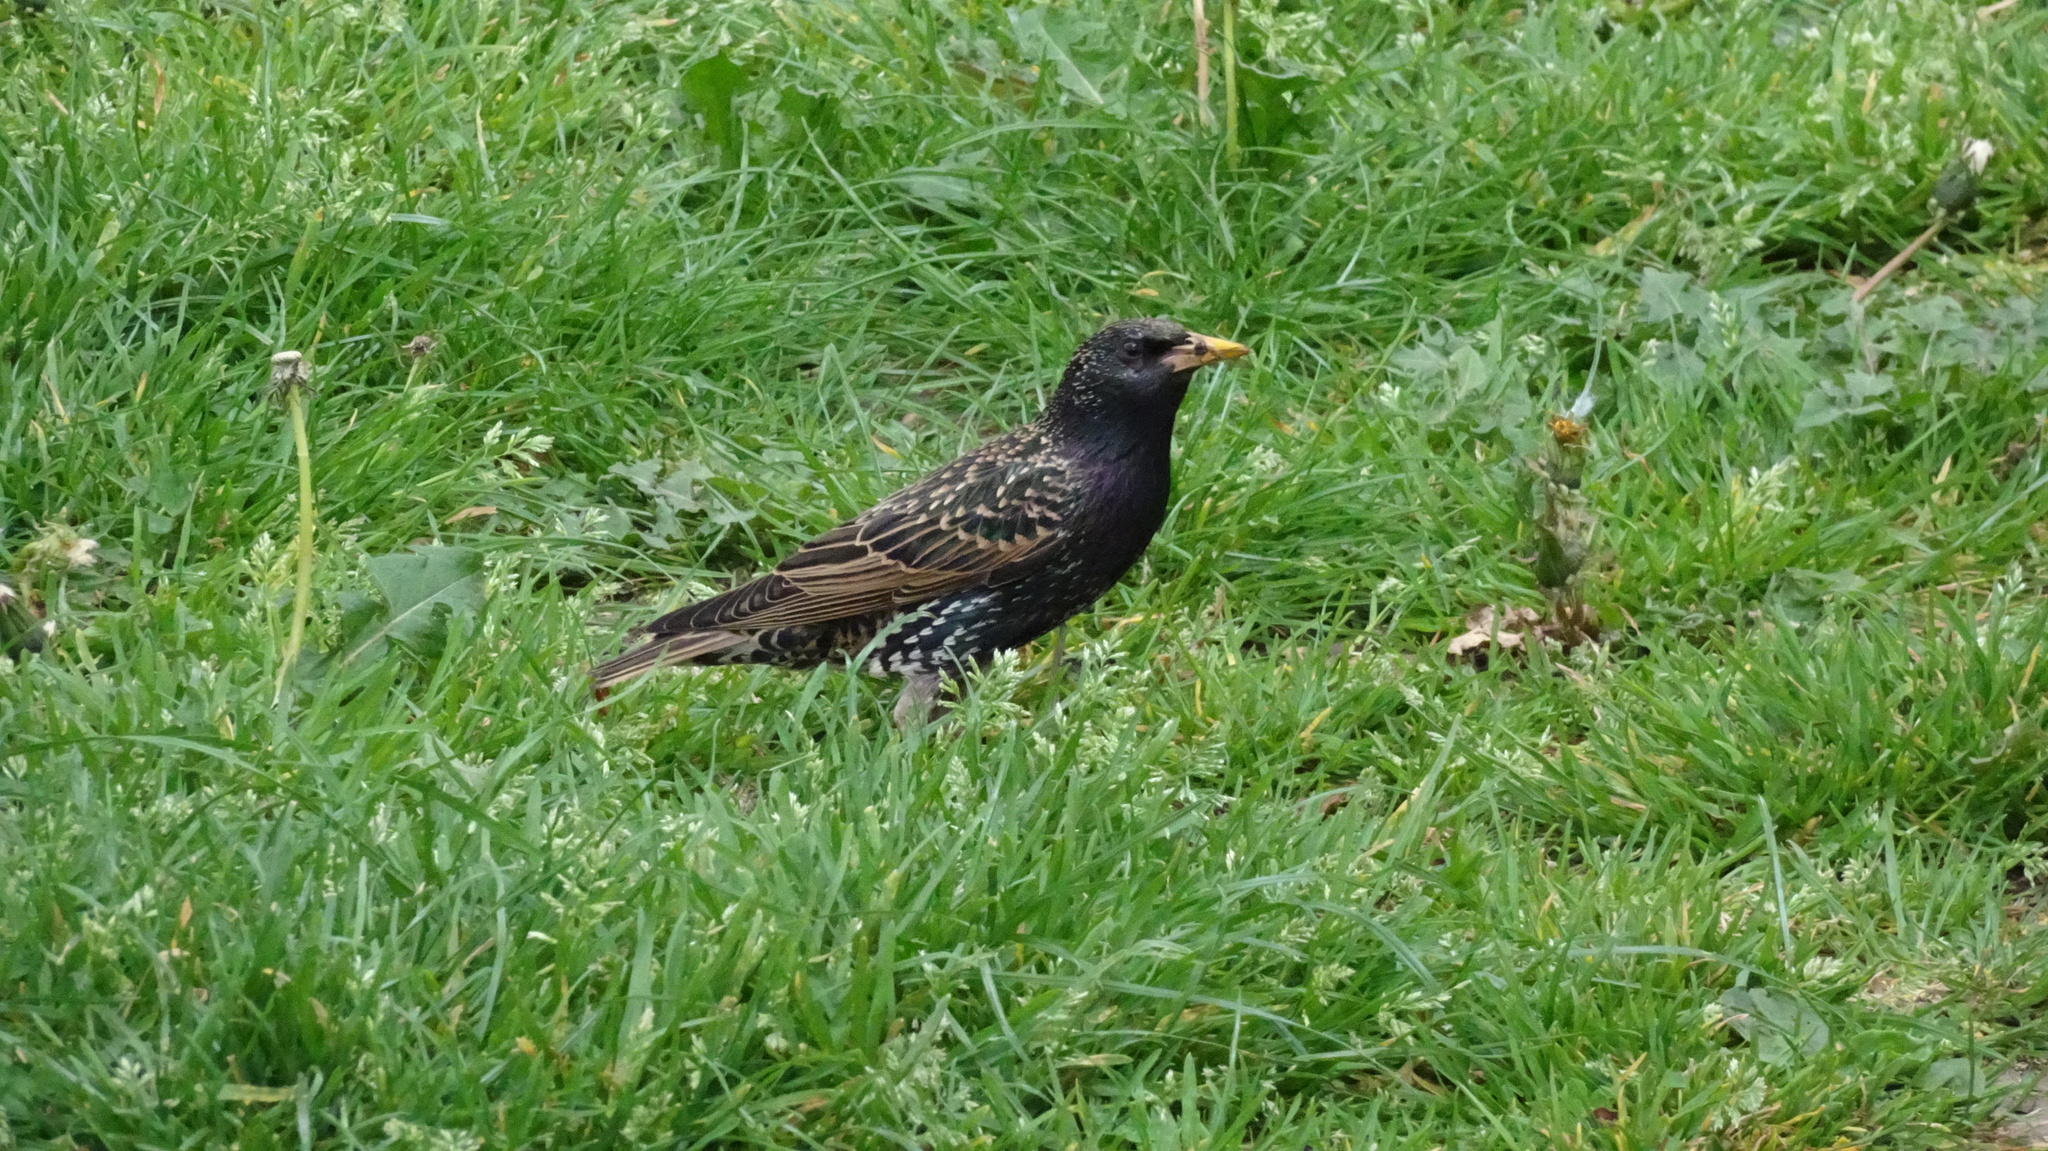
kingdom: Animalia
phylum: Chordata
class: Aves
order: Passeriformes
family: Sturnidae
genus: Sturnus
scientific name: Sturnus vulgaris
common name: Common starling
